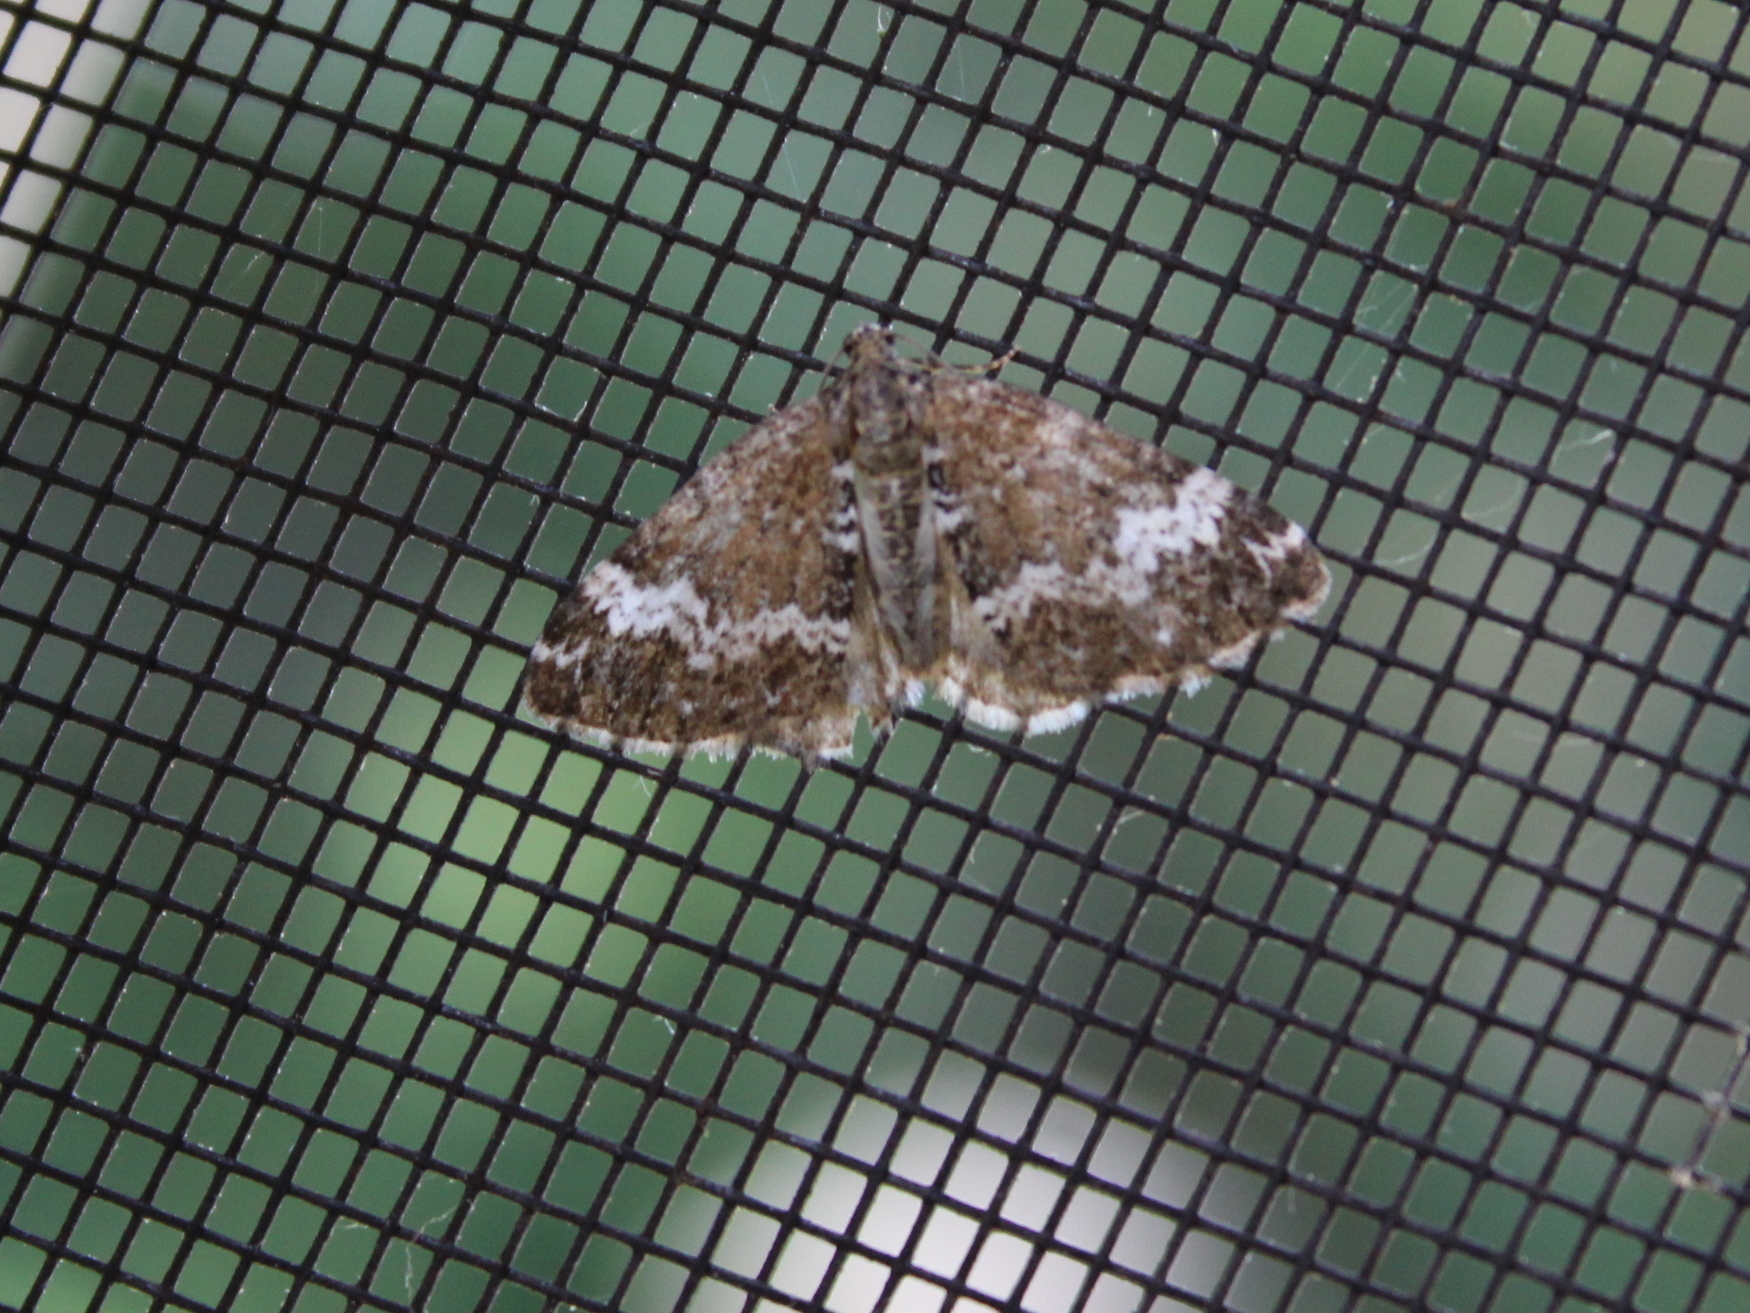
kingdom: Animalia
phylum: Arthropoda
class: Insecta
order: Lepidoptera
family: Geometridae
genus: Perizoma
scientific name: Perizoma alchemillata
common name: Small rivulet
